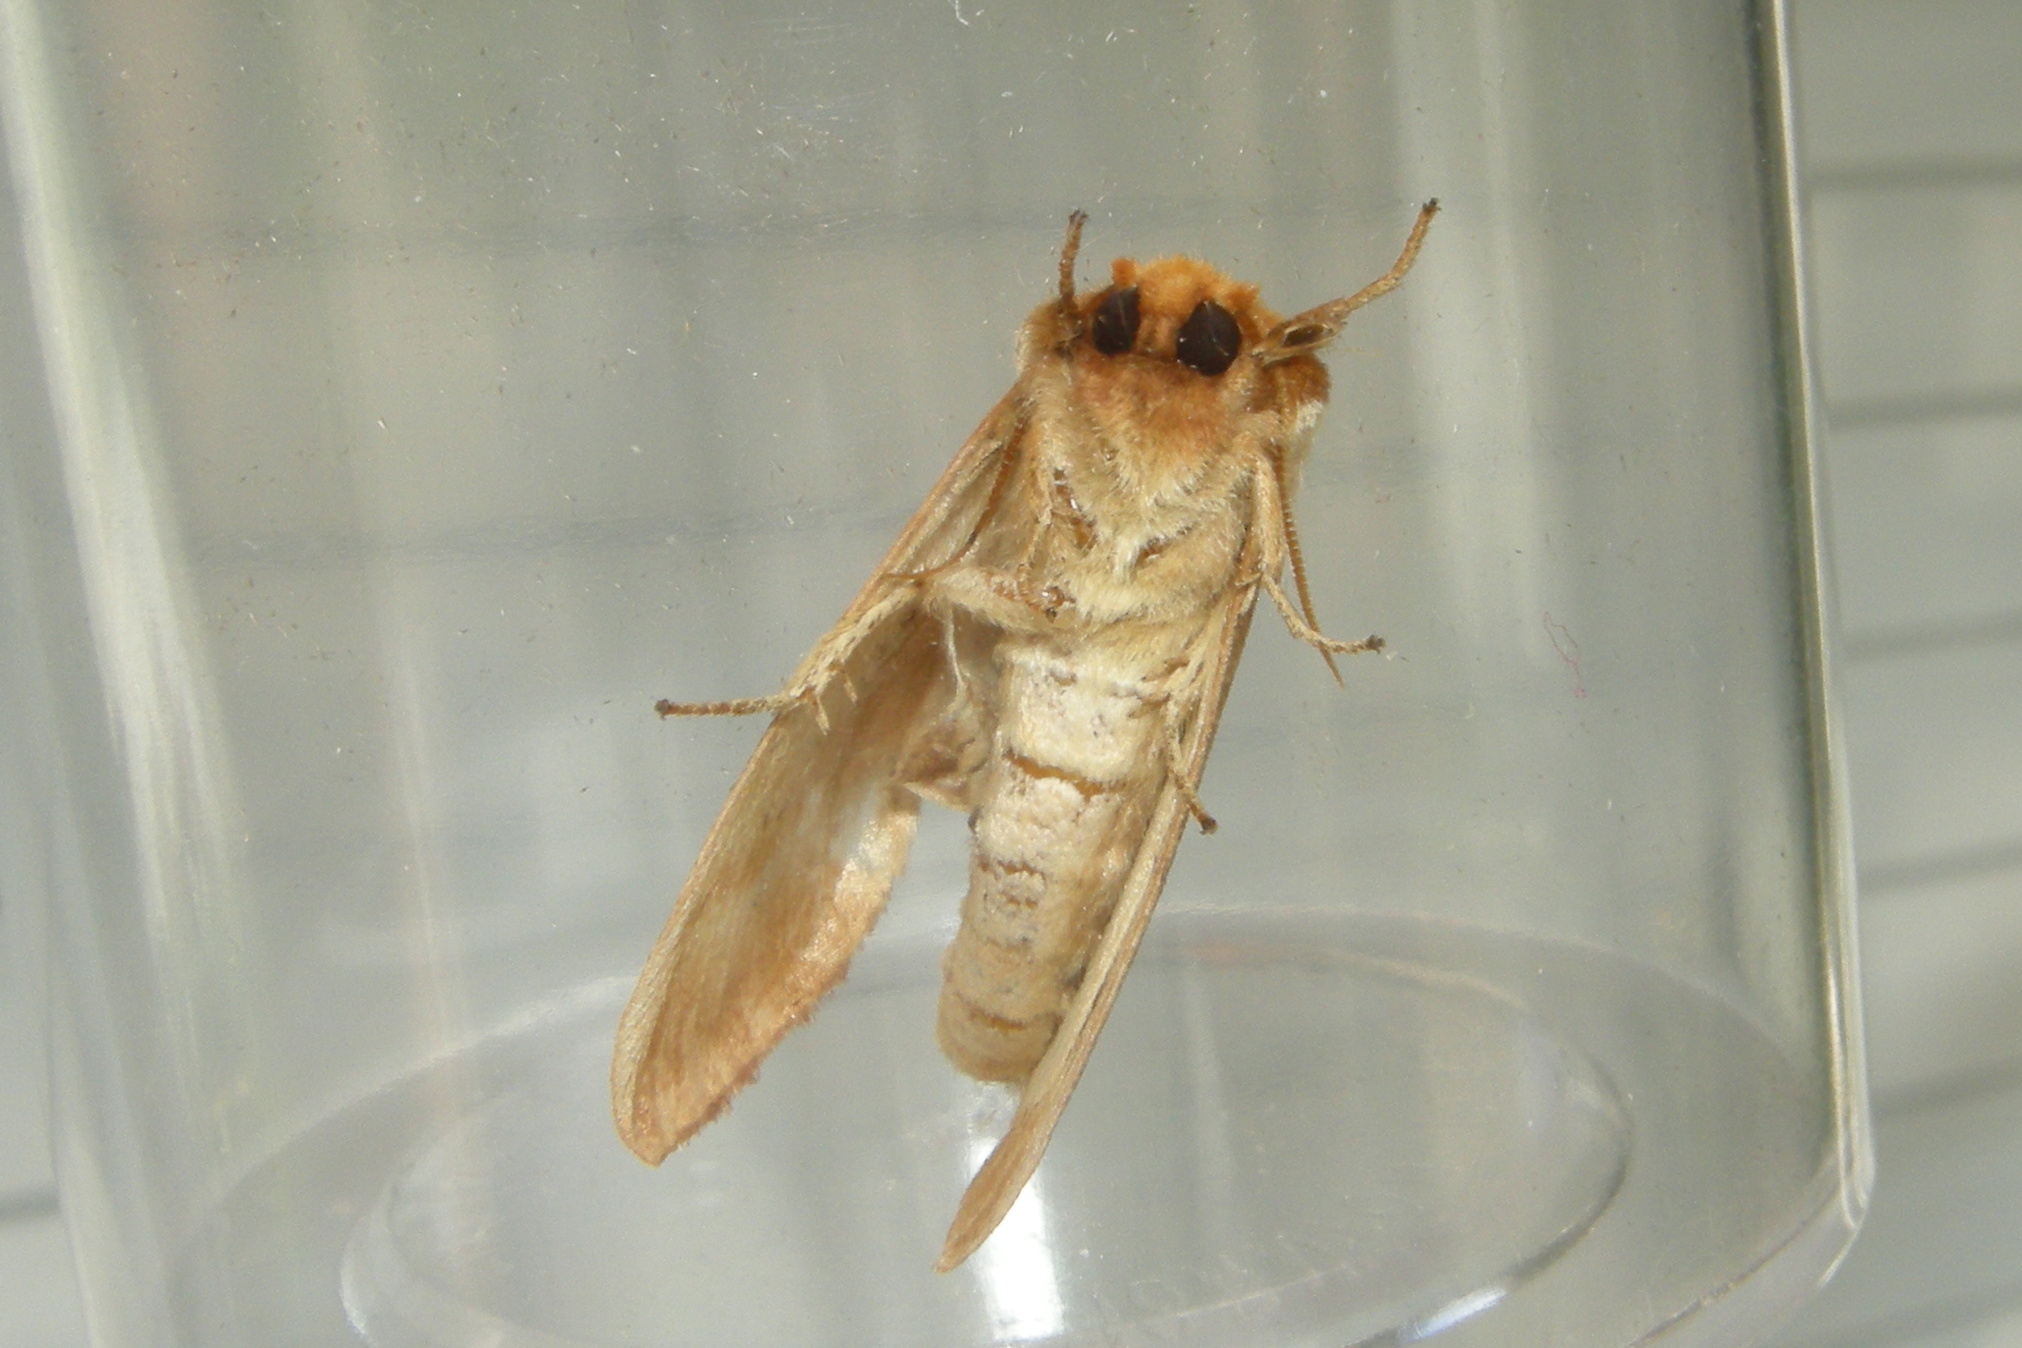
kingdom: Animalia
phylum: Arthropoda
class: Insecta
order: Lepidoptera
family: Notodontidae
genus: Datana
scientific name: Datana integerrima
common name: Walnut caterpillar
